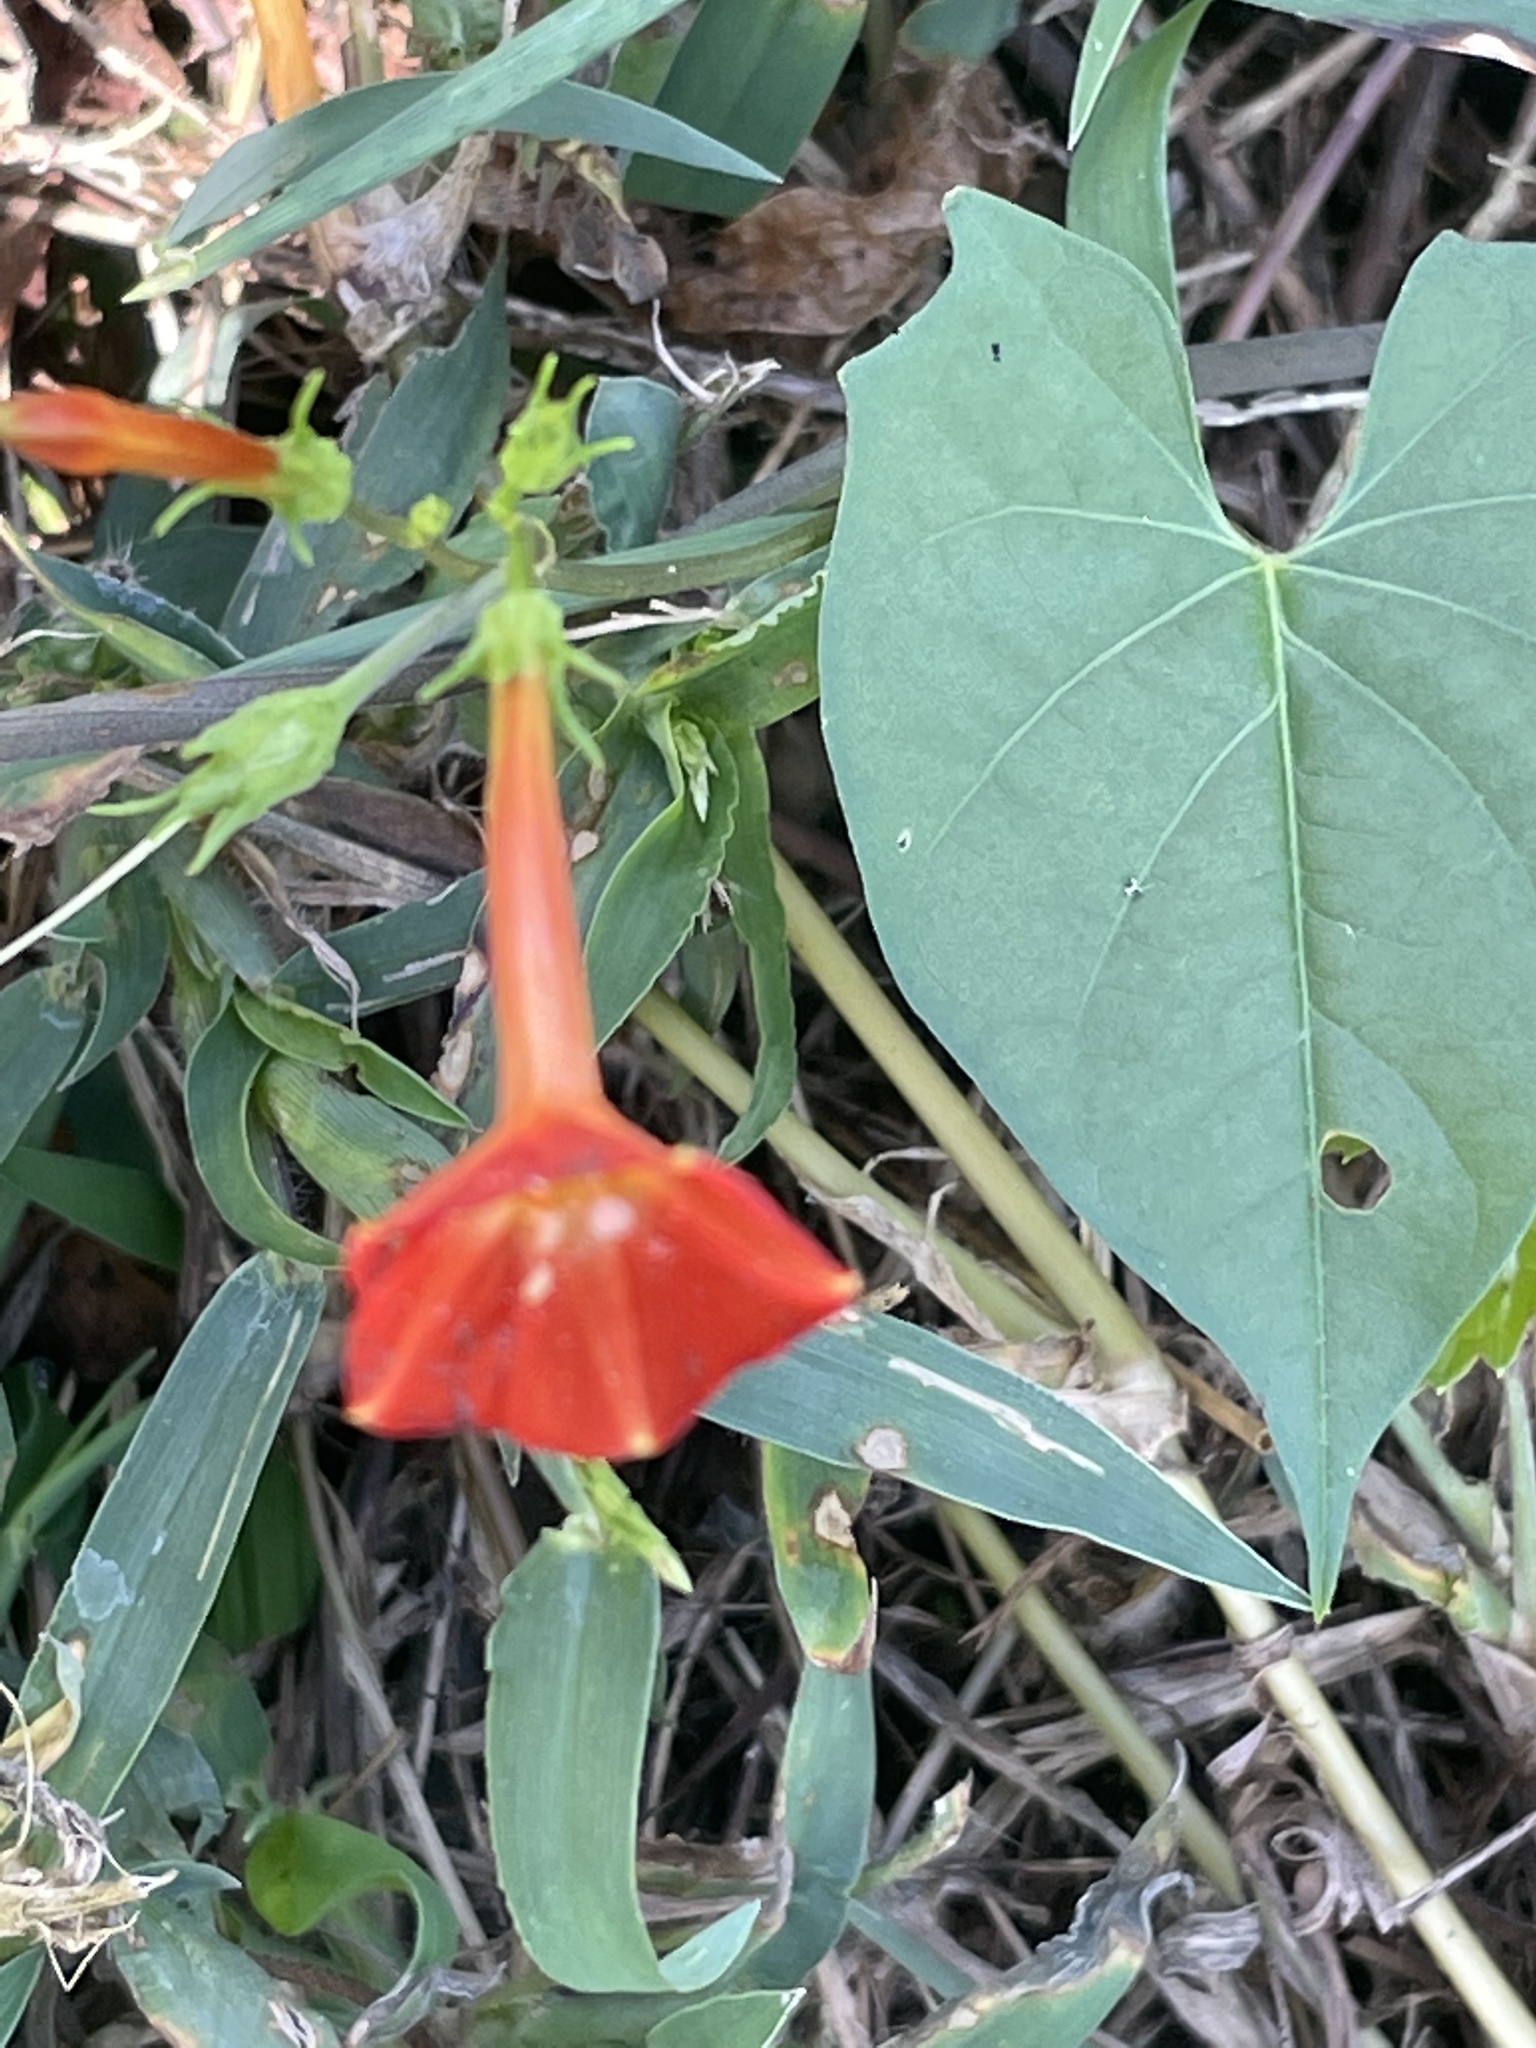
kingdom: Plantae
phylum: Tracheophyta
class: Magnoliopsida
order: Solanales
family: Convolvulaceae
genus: Ipomoea
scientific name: Ipomoea coccinea
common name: Red morning-glory
